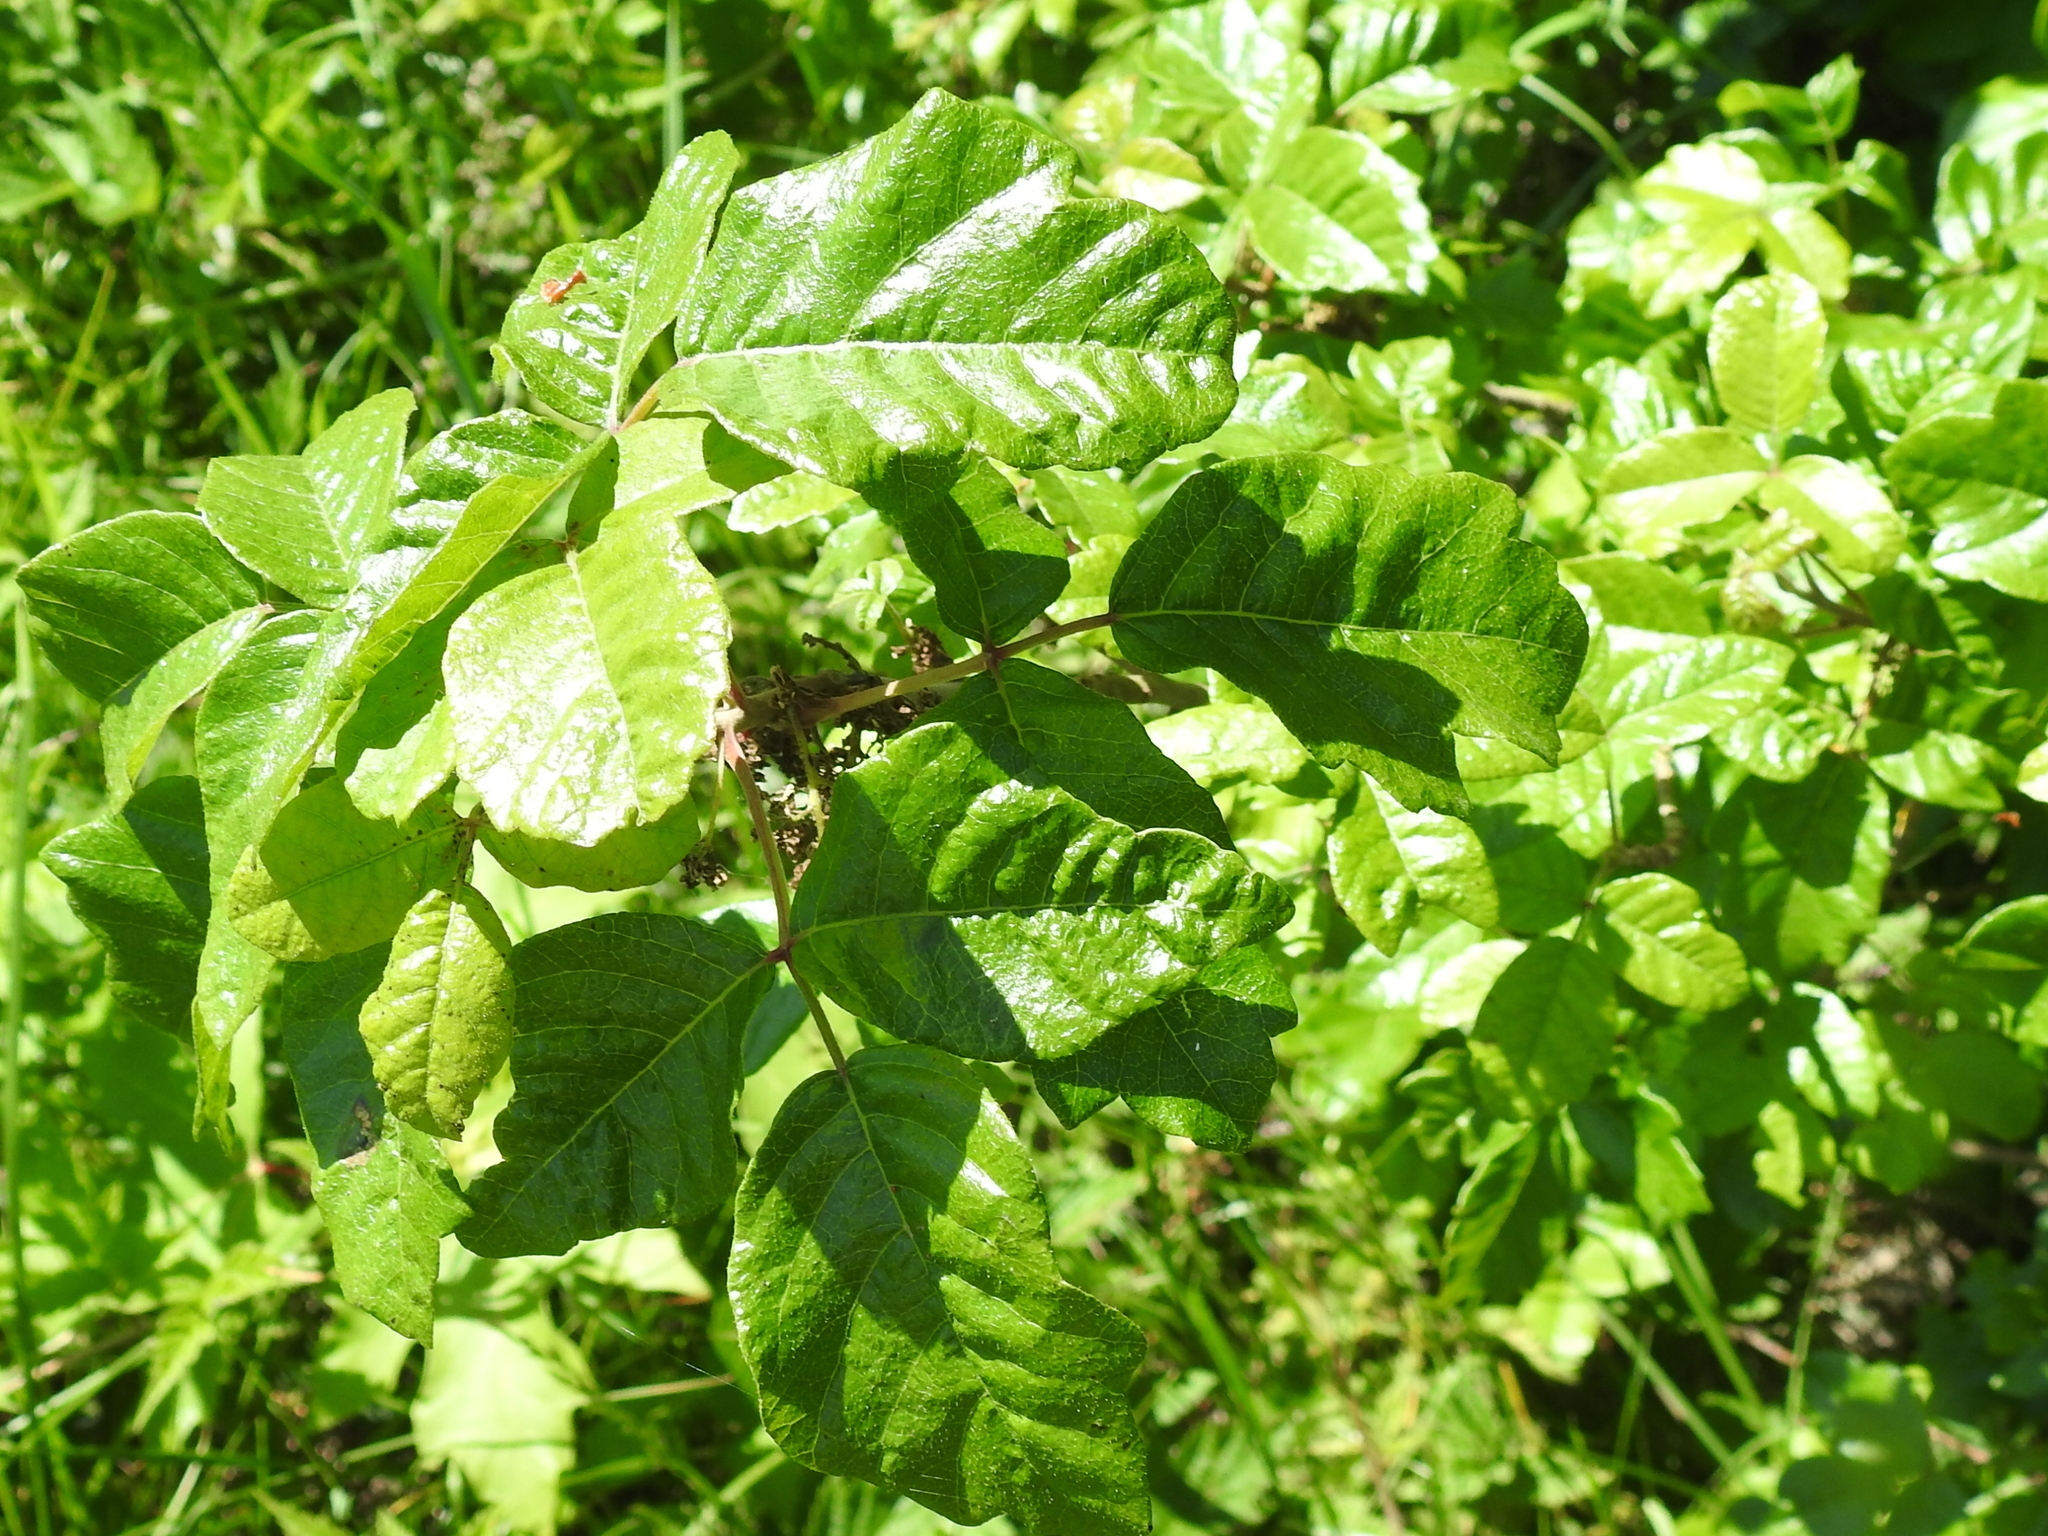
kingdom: Plantae
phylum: Tracheophyta
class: Magnoliopsida
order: Sapindales
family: Anacardiaceae
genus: Toxicodendron
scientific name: Toxicodendron diversilobum
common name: Pacific poison-oak
